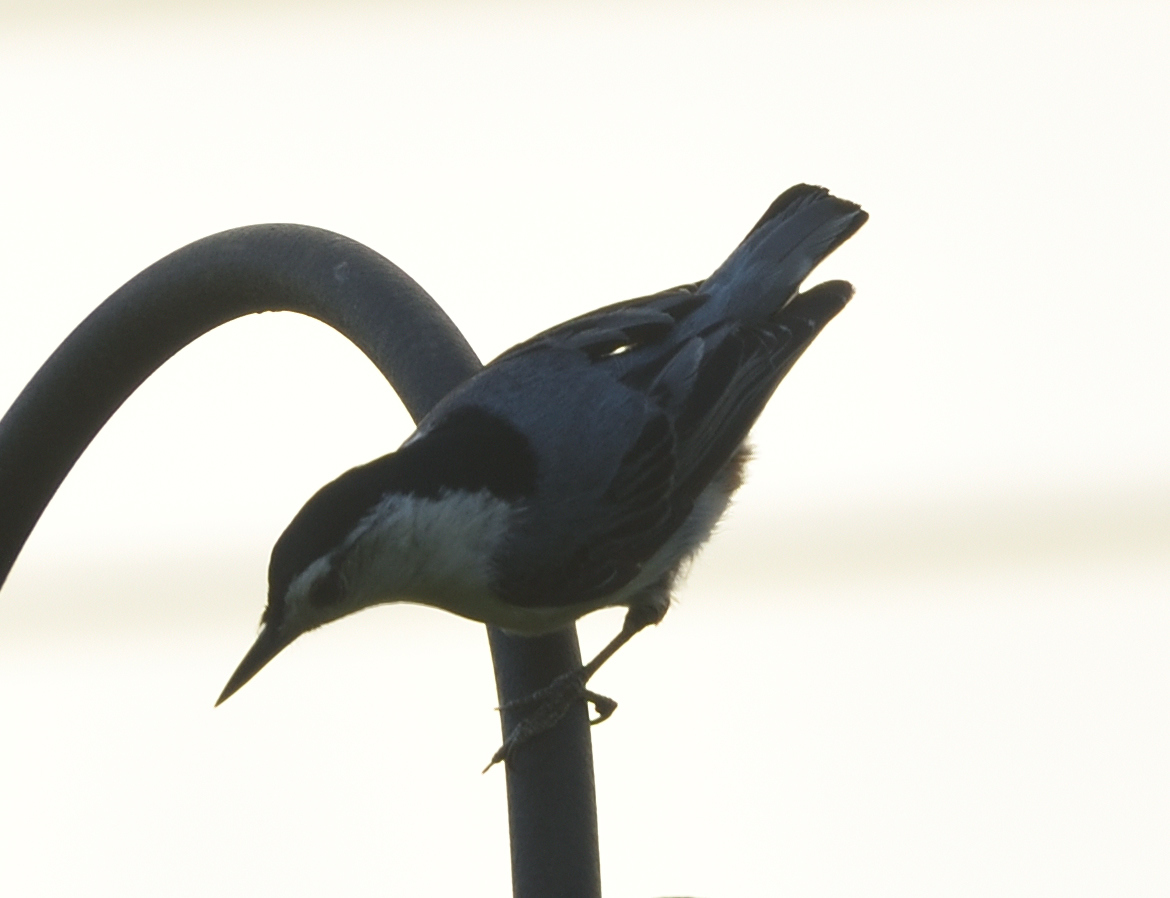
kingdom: Animalia
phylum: Chordata
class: Aves
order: Passeriformes
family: Sittidae
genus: Sitta
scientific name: Sitta carolinensis
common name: White-breasted nuthatch
